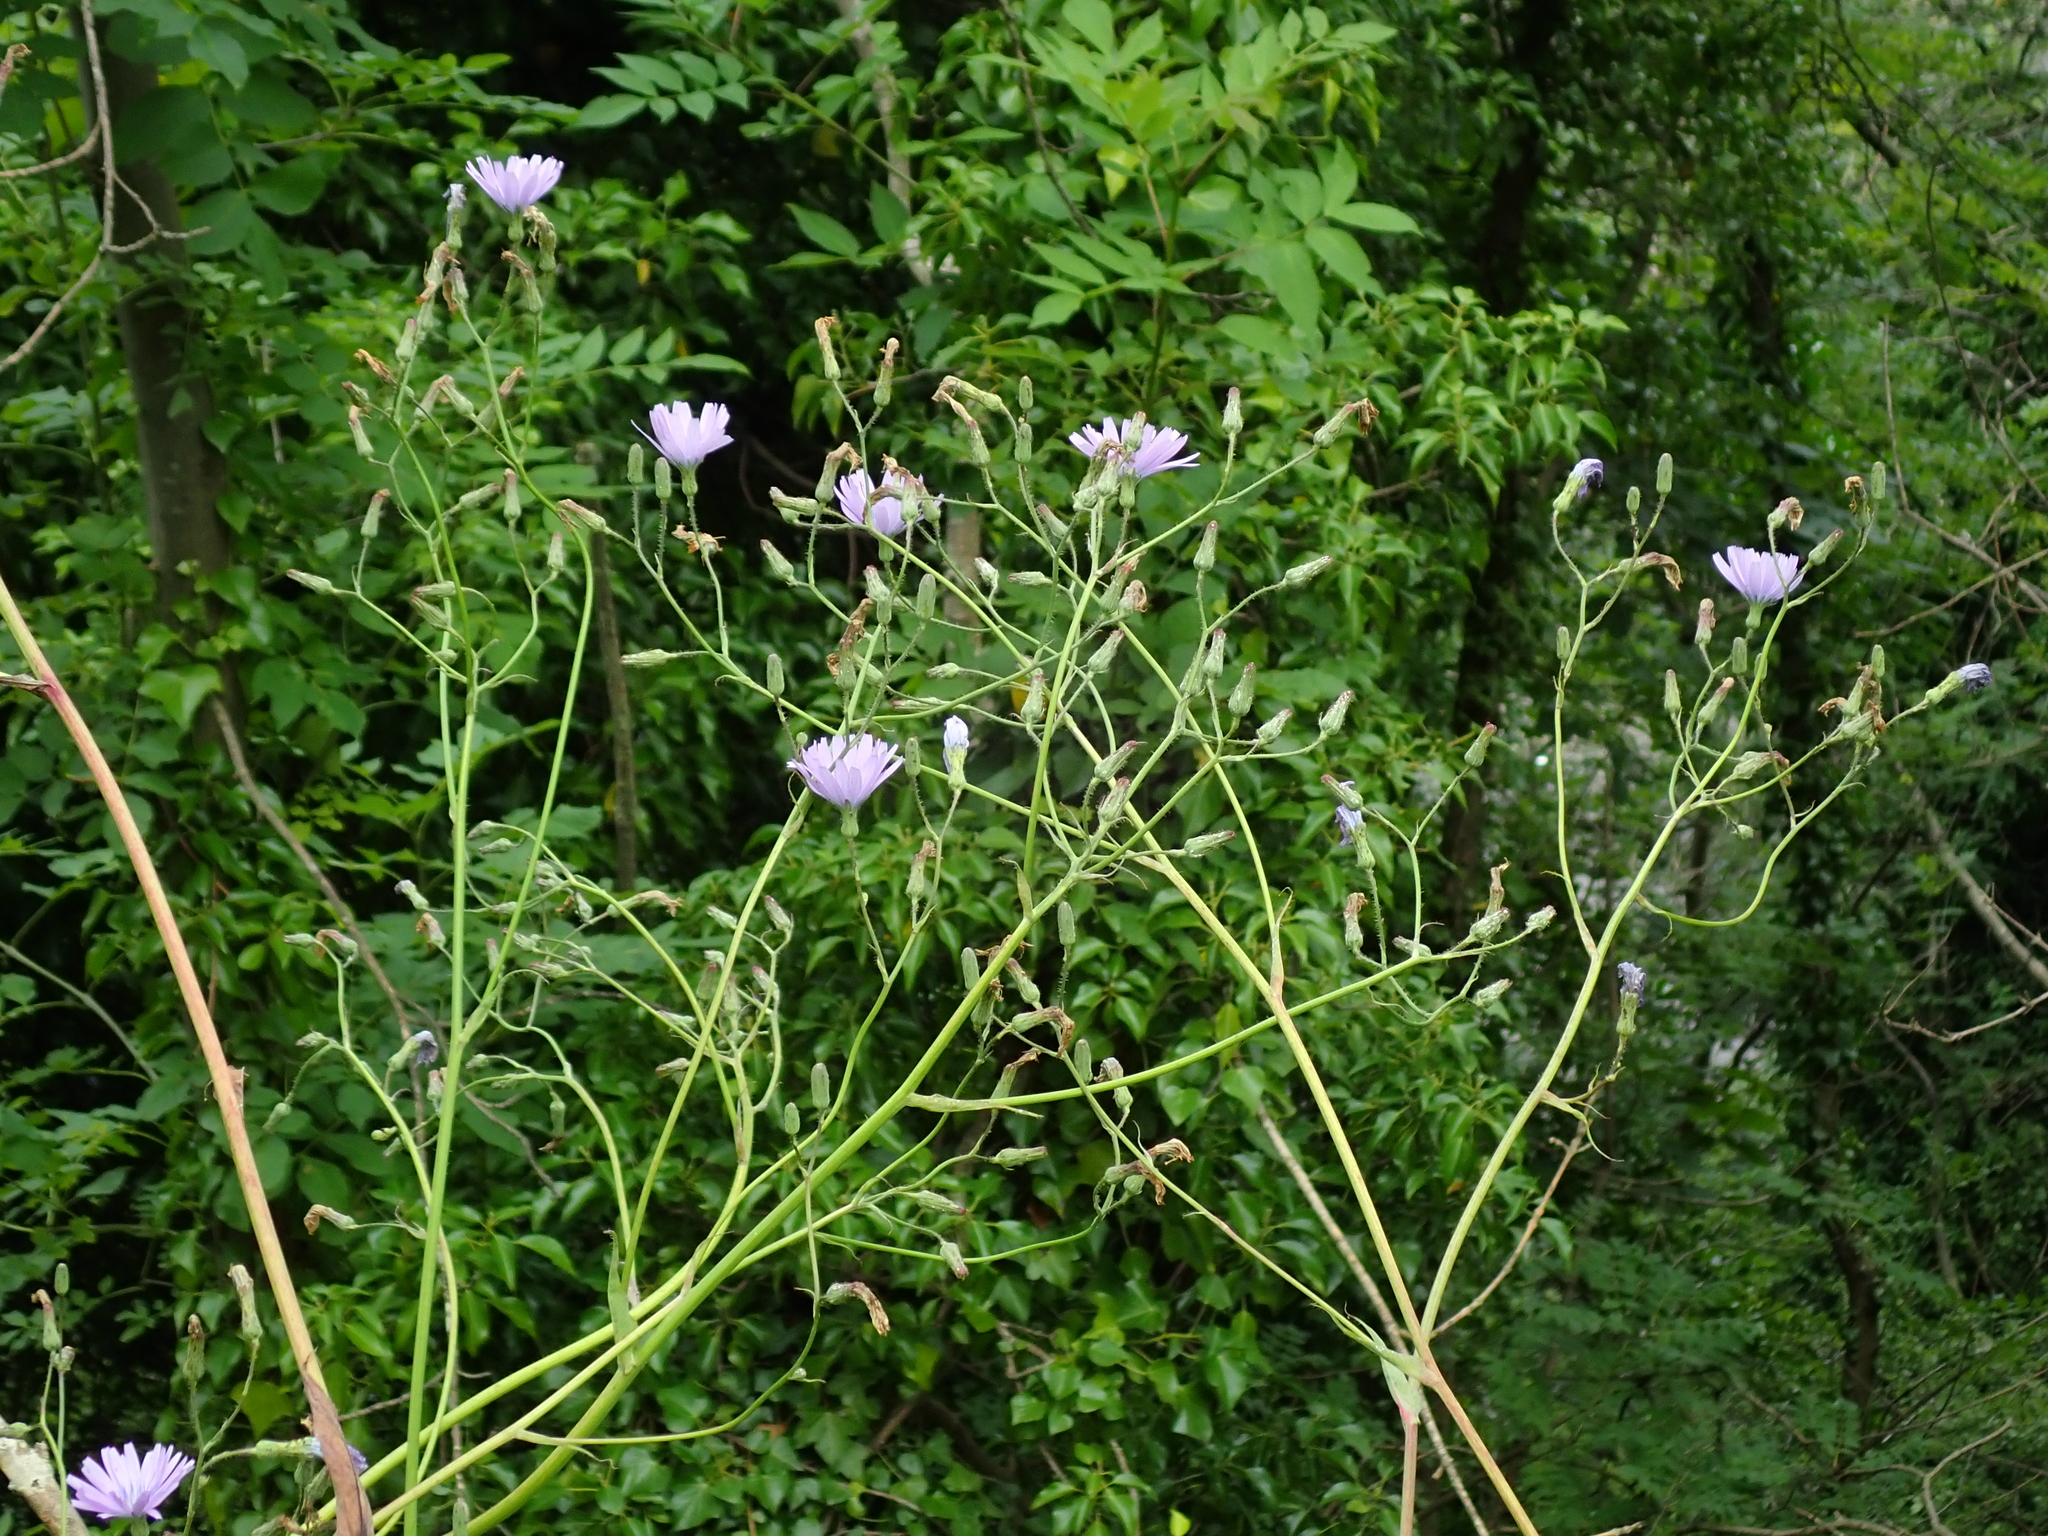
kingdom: Plantae
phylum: Tracheophyta
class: Magnoliopsida
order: Asterales
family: Asteraceae
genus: Lactuca
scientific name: Lactuca macrophylla
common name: Common blue-sow-thistle
